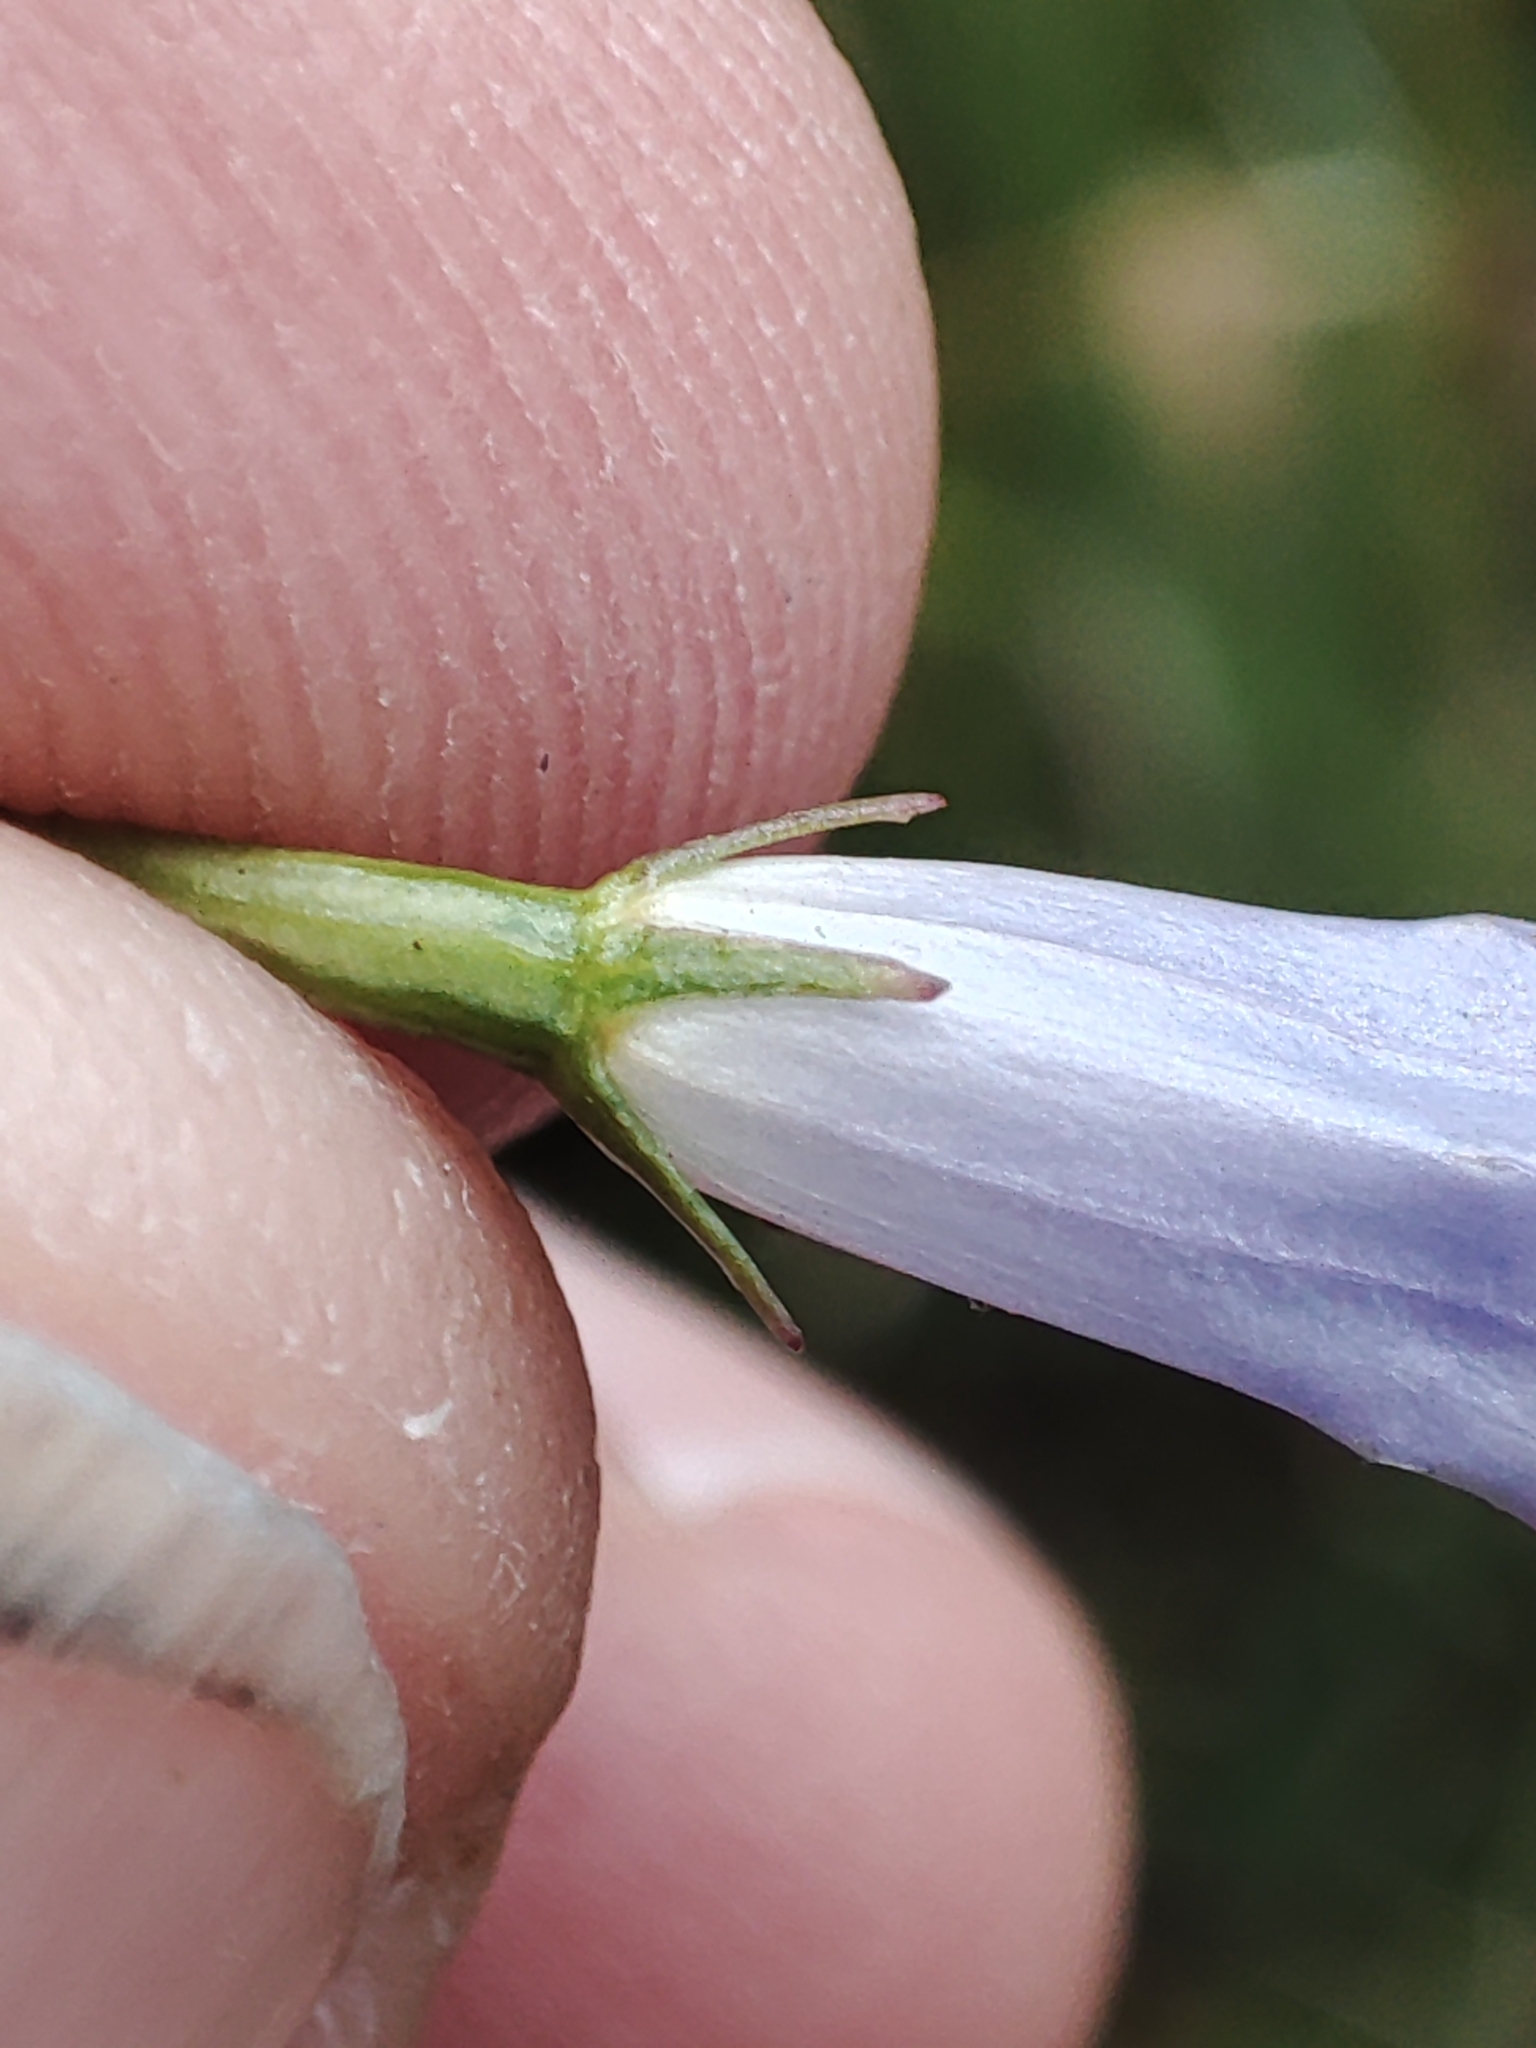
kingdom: Plantae
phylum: Tracheophyta
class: Magnoliopsida
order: Asterales
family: Campanulaceae
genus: Wahlenbergia
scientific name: Wahlenbergia
